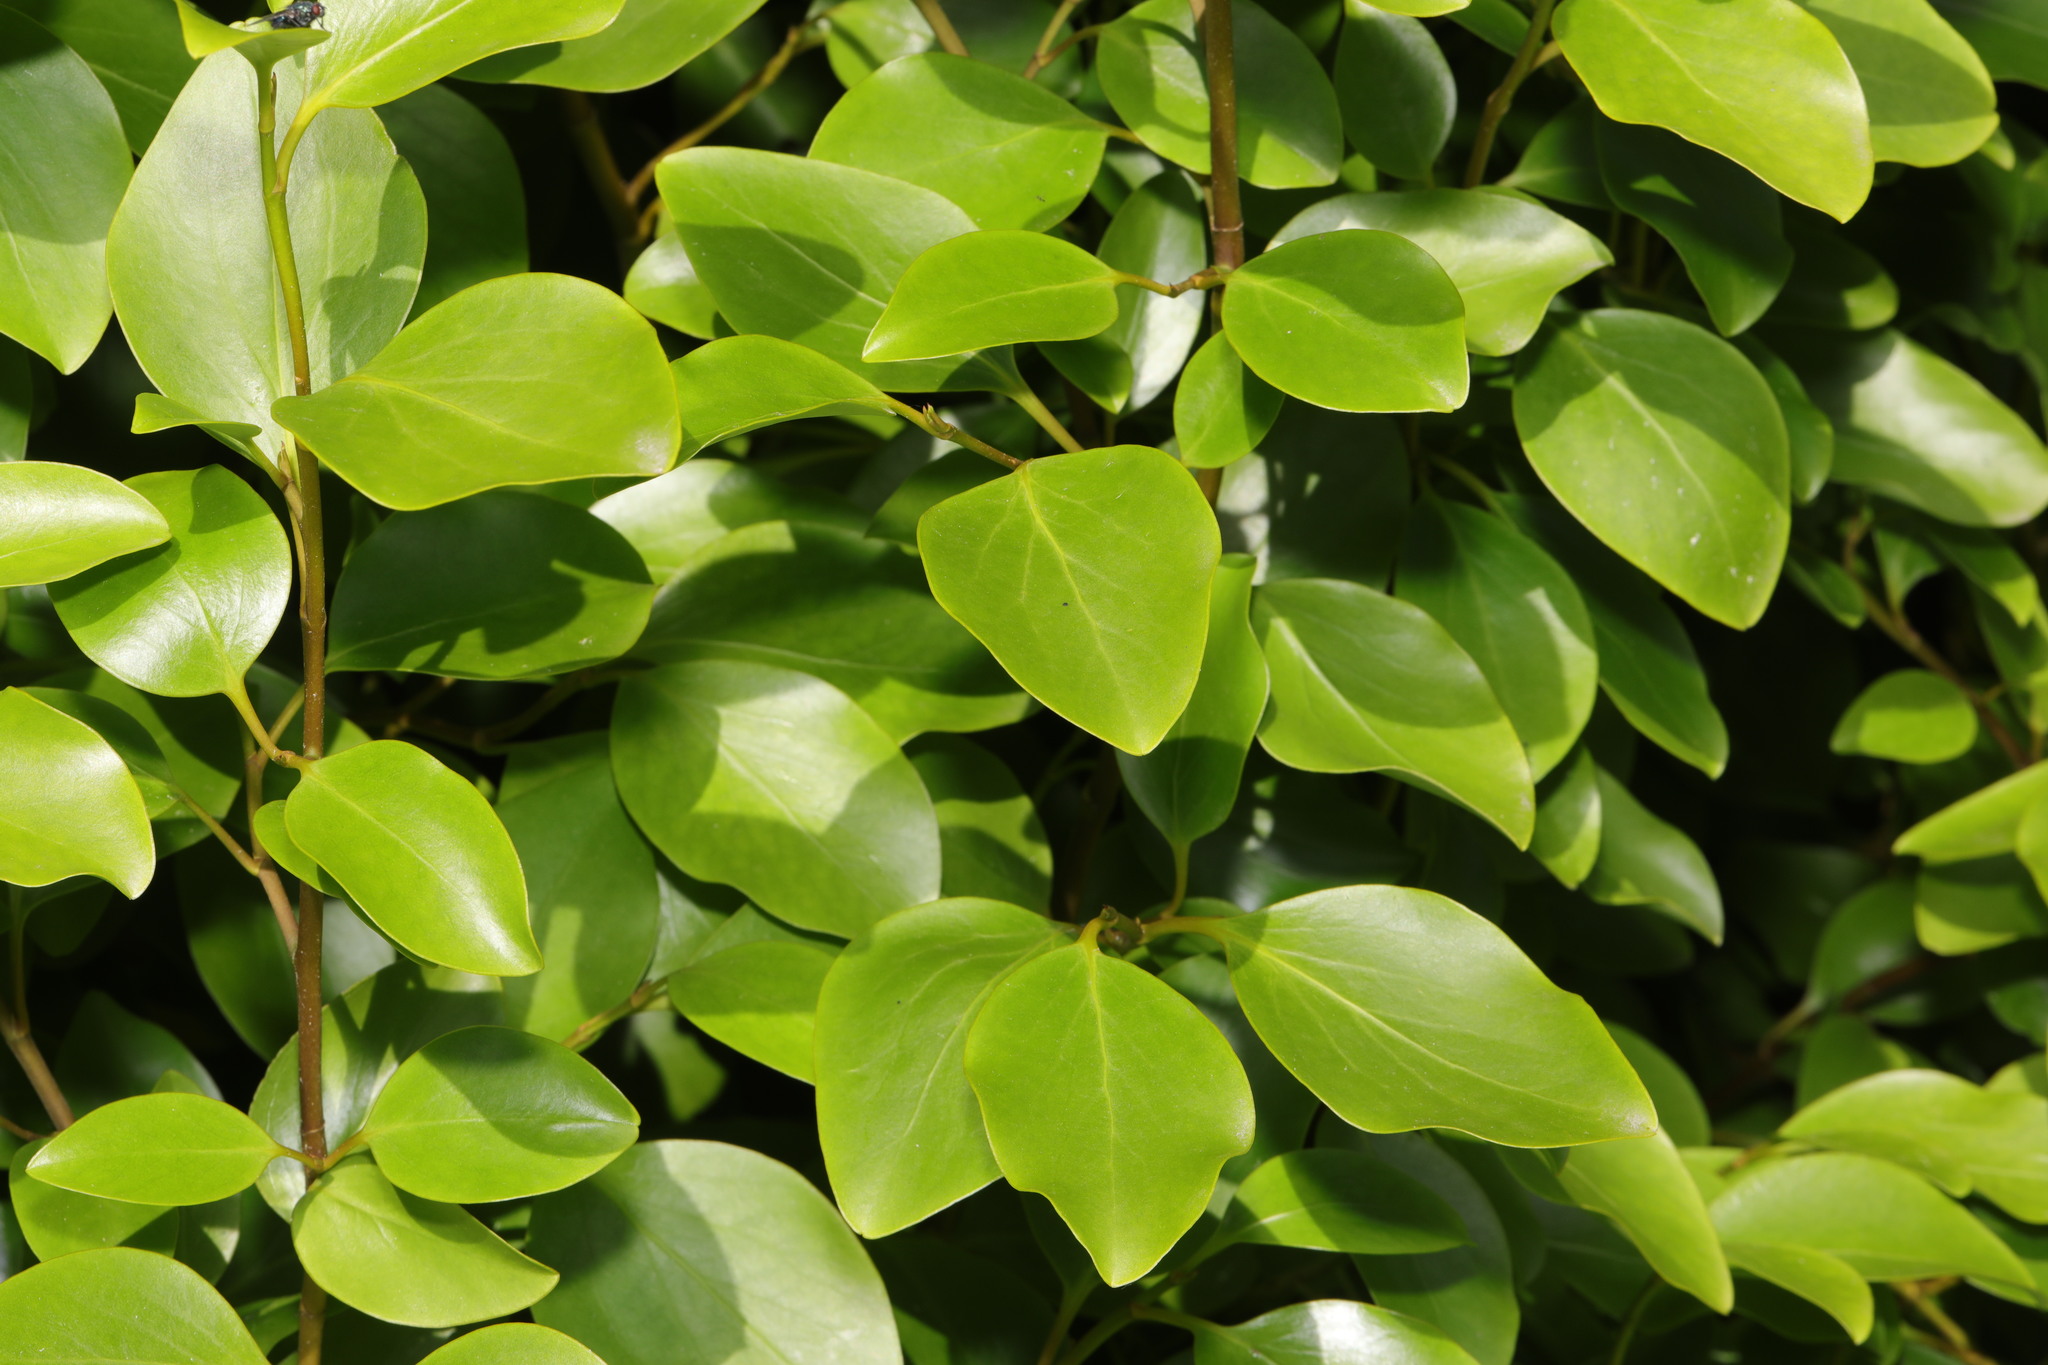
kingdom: Plantae
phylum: Tracheophyta
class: Magnoliopsida
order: Apiales
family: Griseliniaceae
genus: Griselinia
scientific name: Griselinia littoralis
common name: New zealand broadleaf
